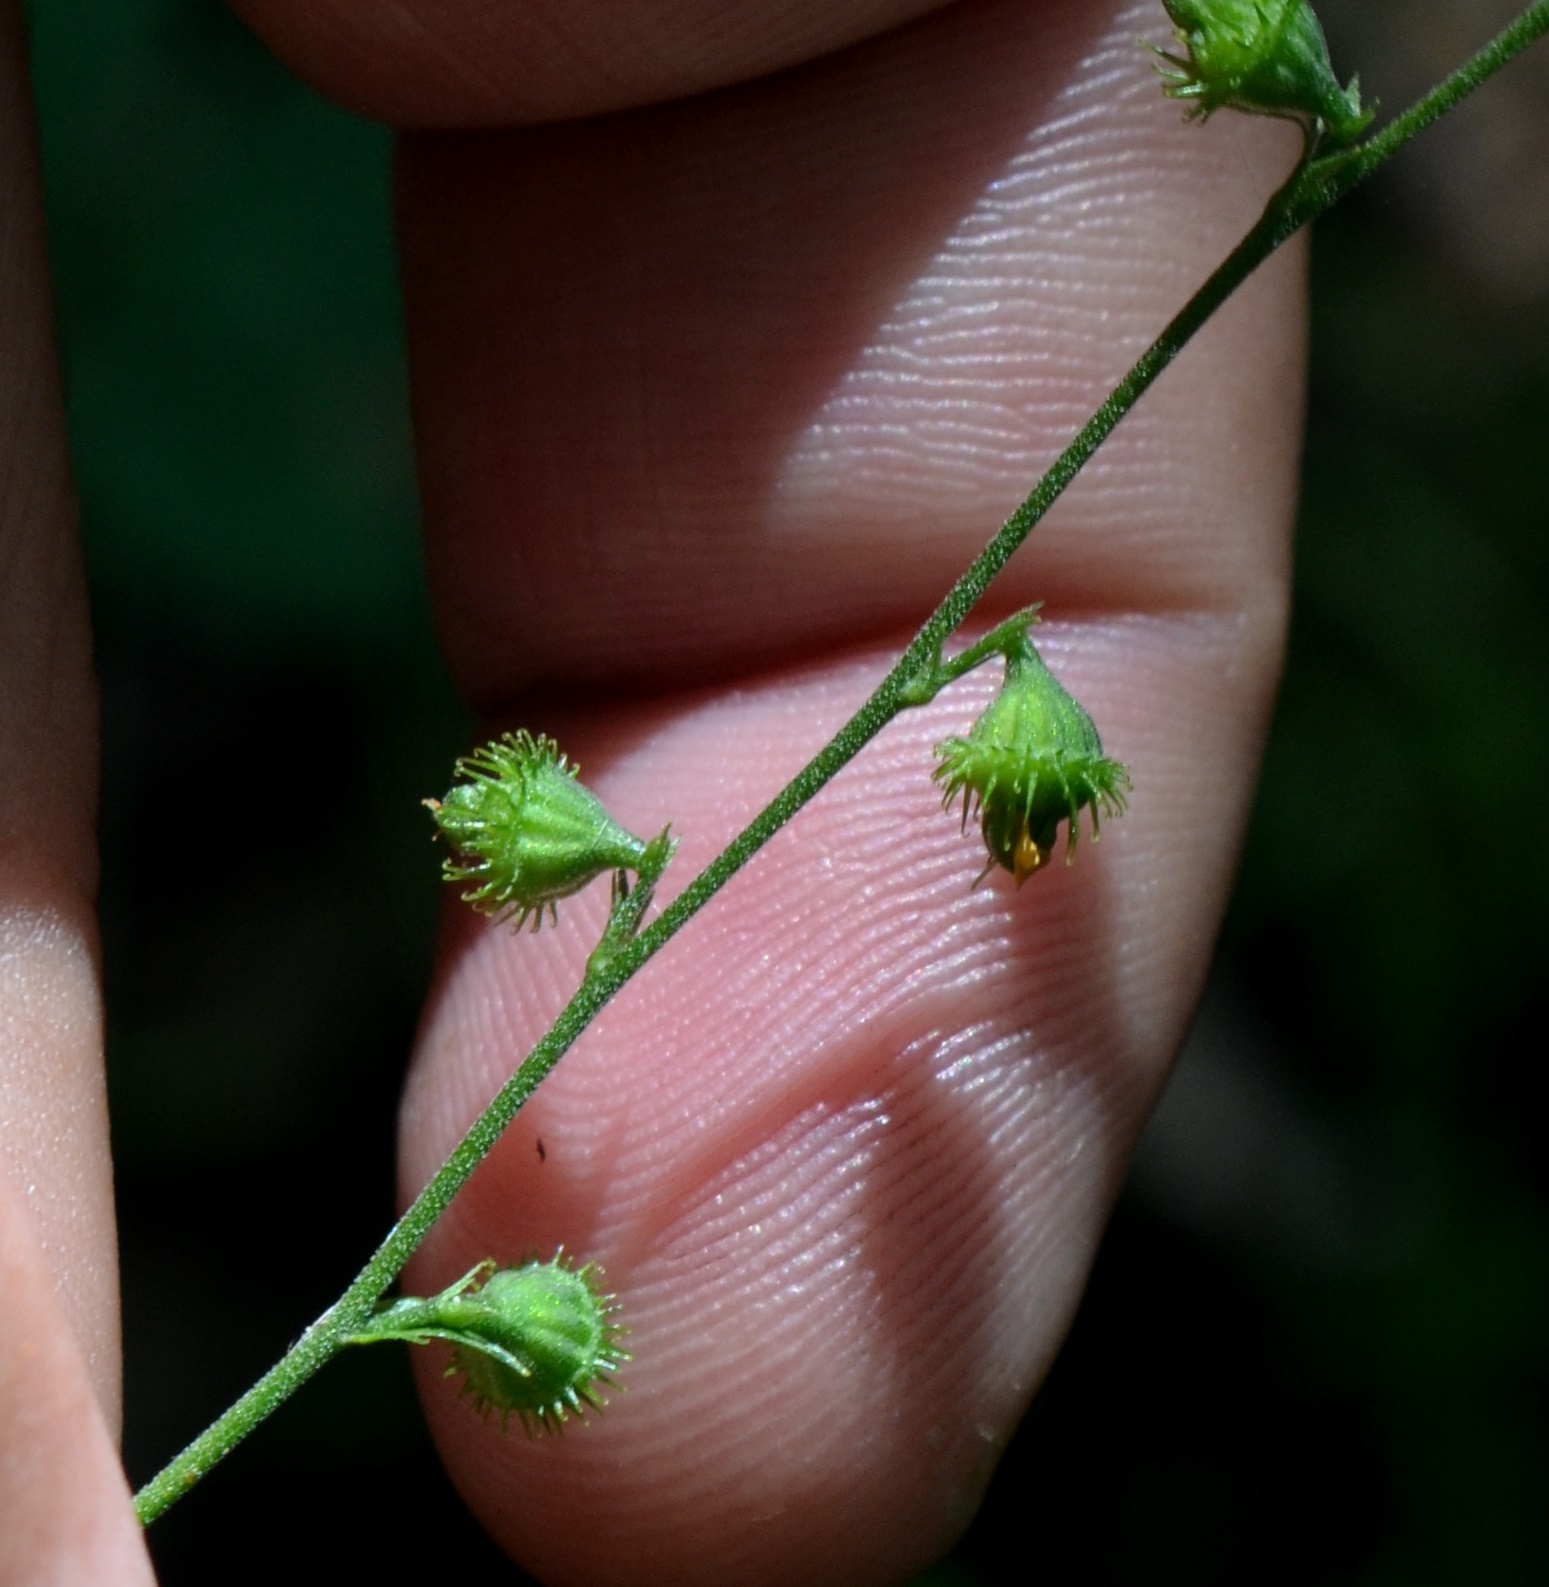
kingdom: Plantae
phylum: Tracheophyta
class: Magnoliopsida
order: Rosales
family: Rosaceae
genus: Agrimonia
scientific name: Agrimonia rostellata
